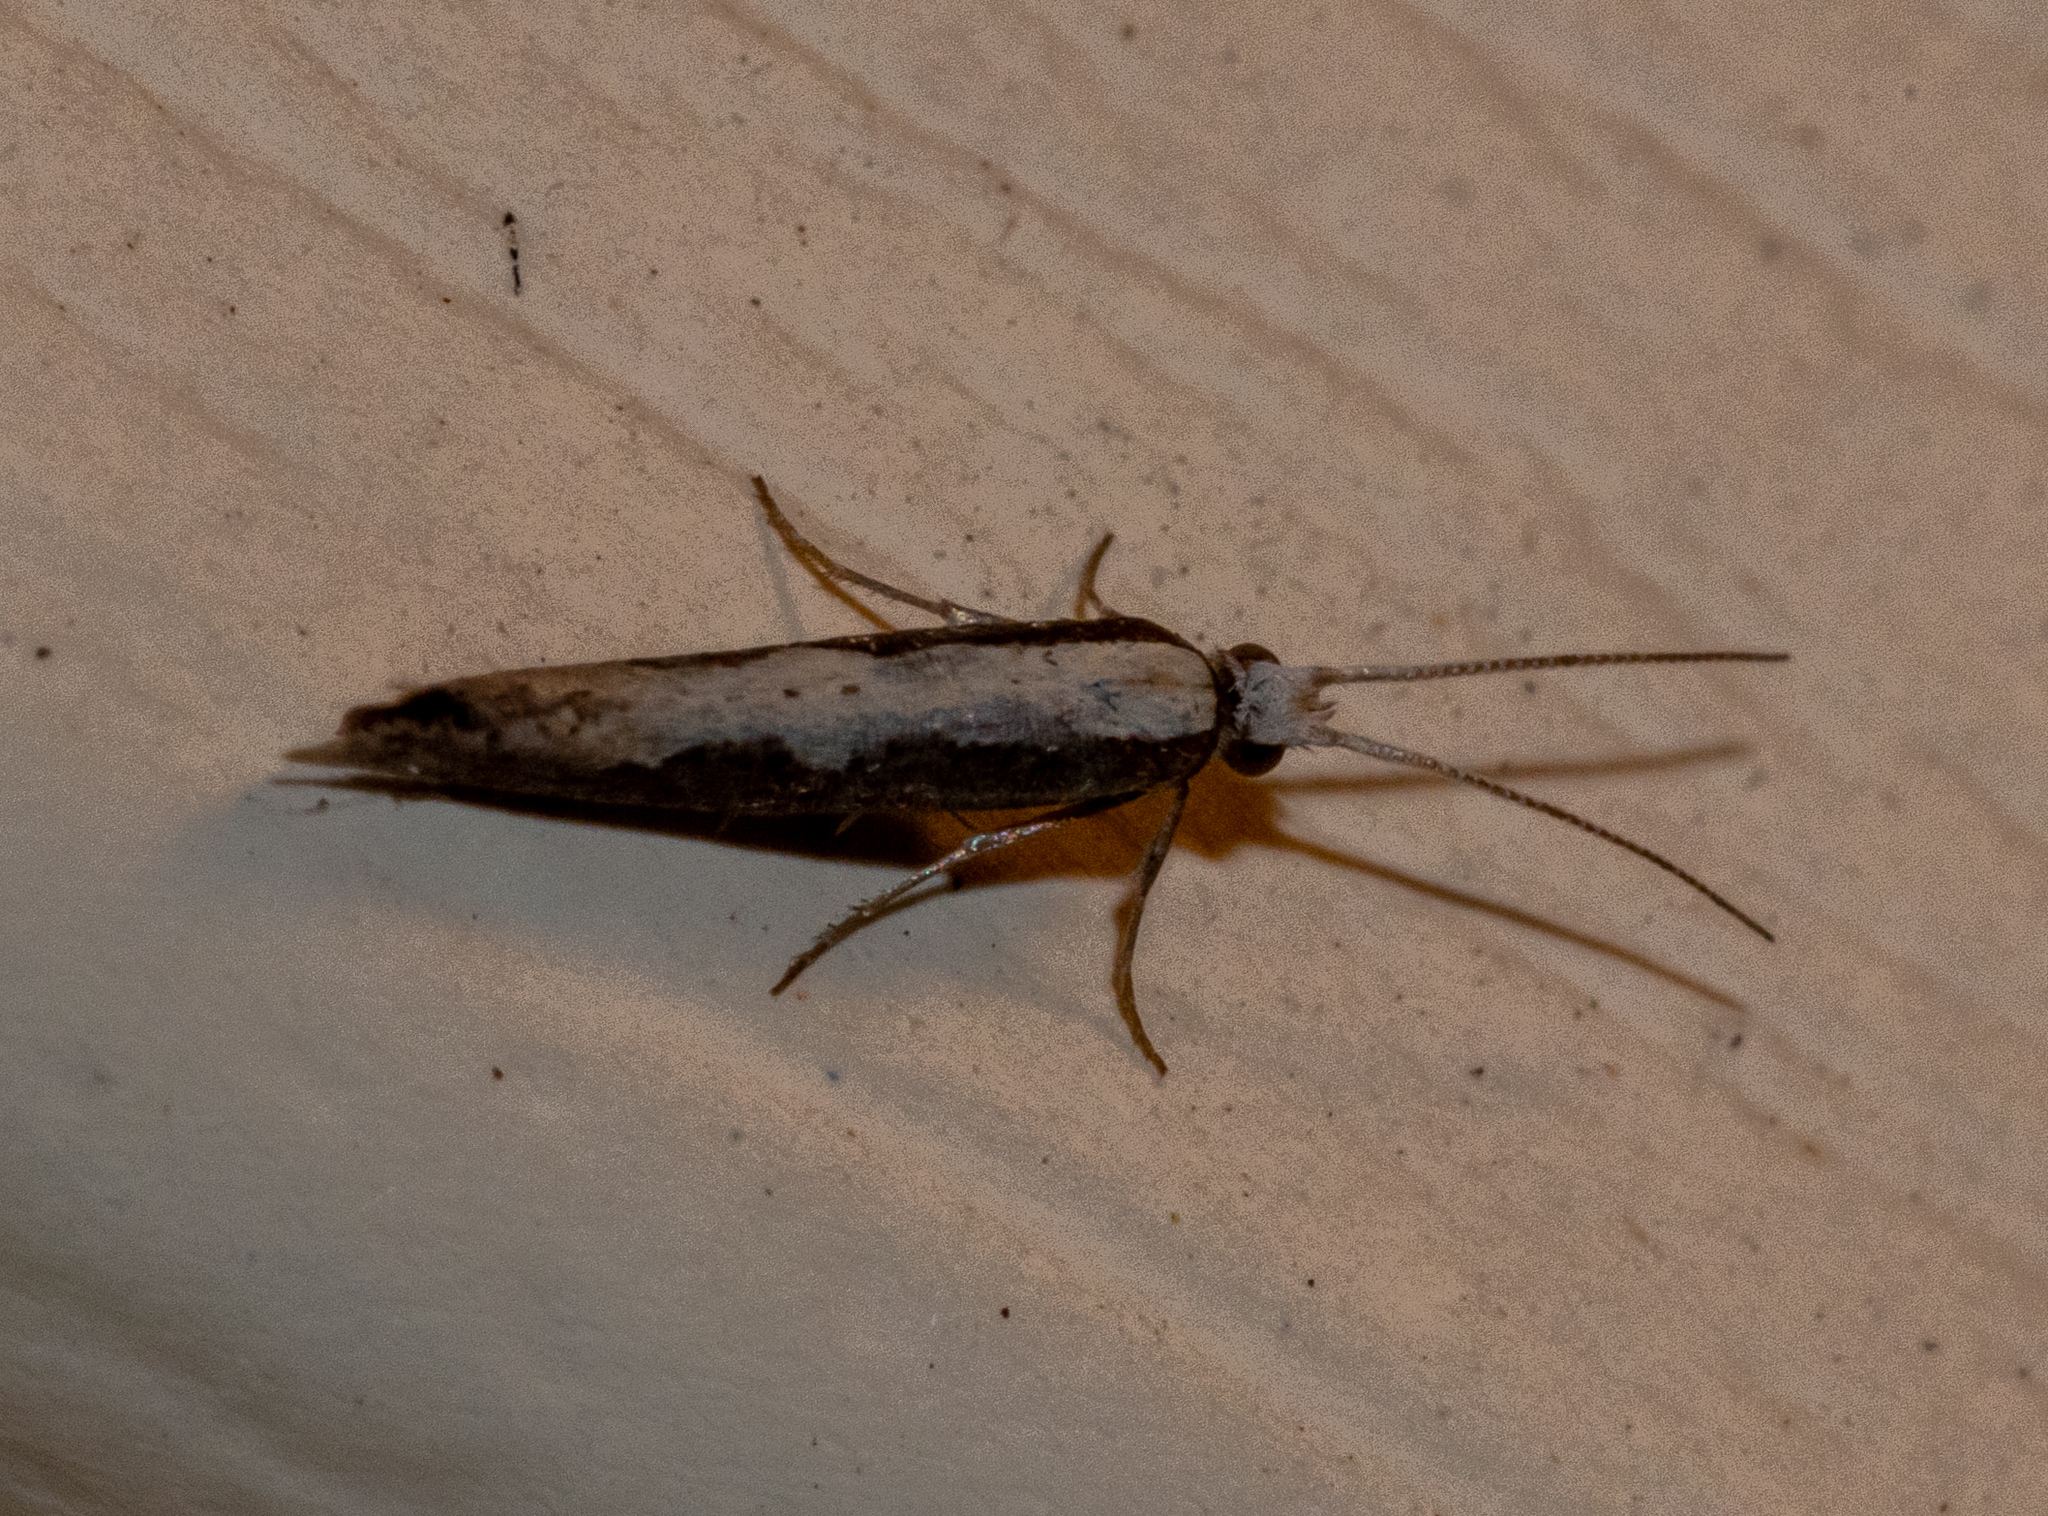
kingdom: Animalia
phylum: Arthropoda
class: Insecta
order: Lepidoptera
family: Plutellidae
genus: Plutella
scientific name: Plutella xylostella
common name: Diamond-back moth
